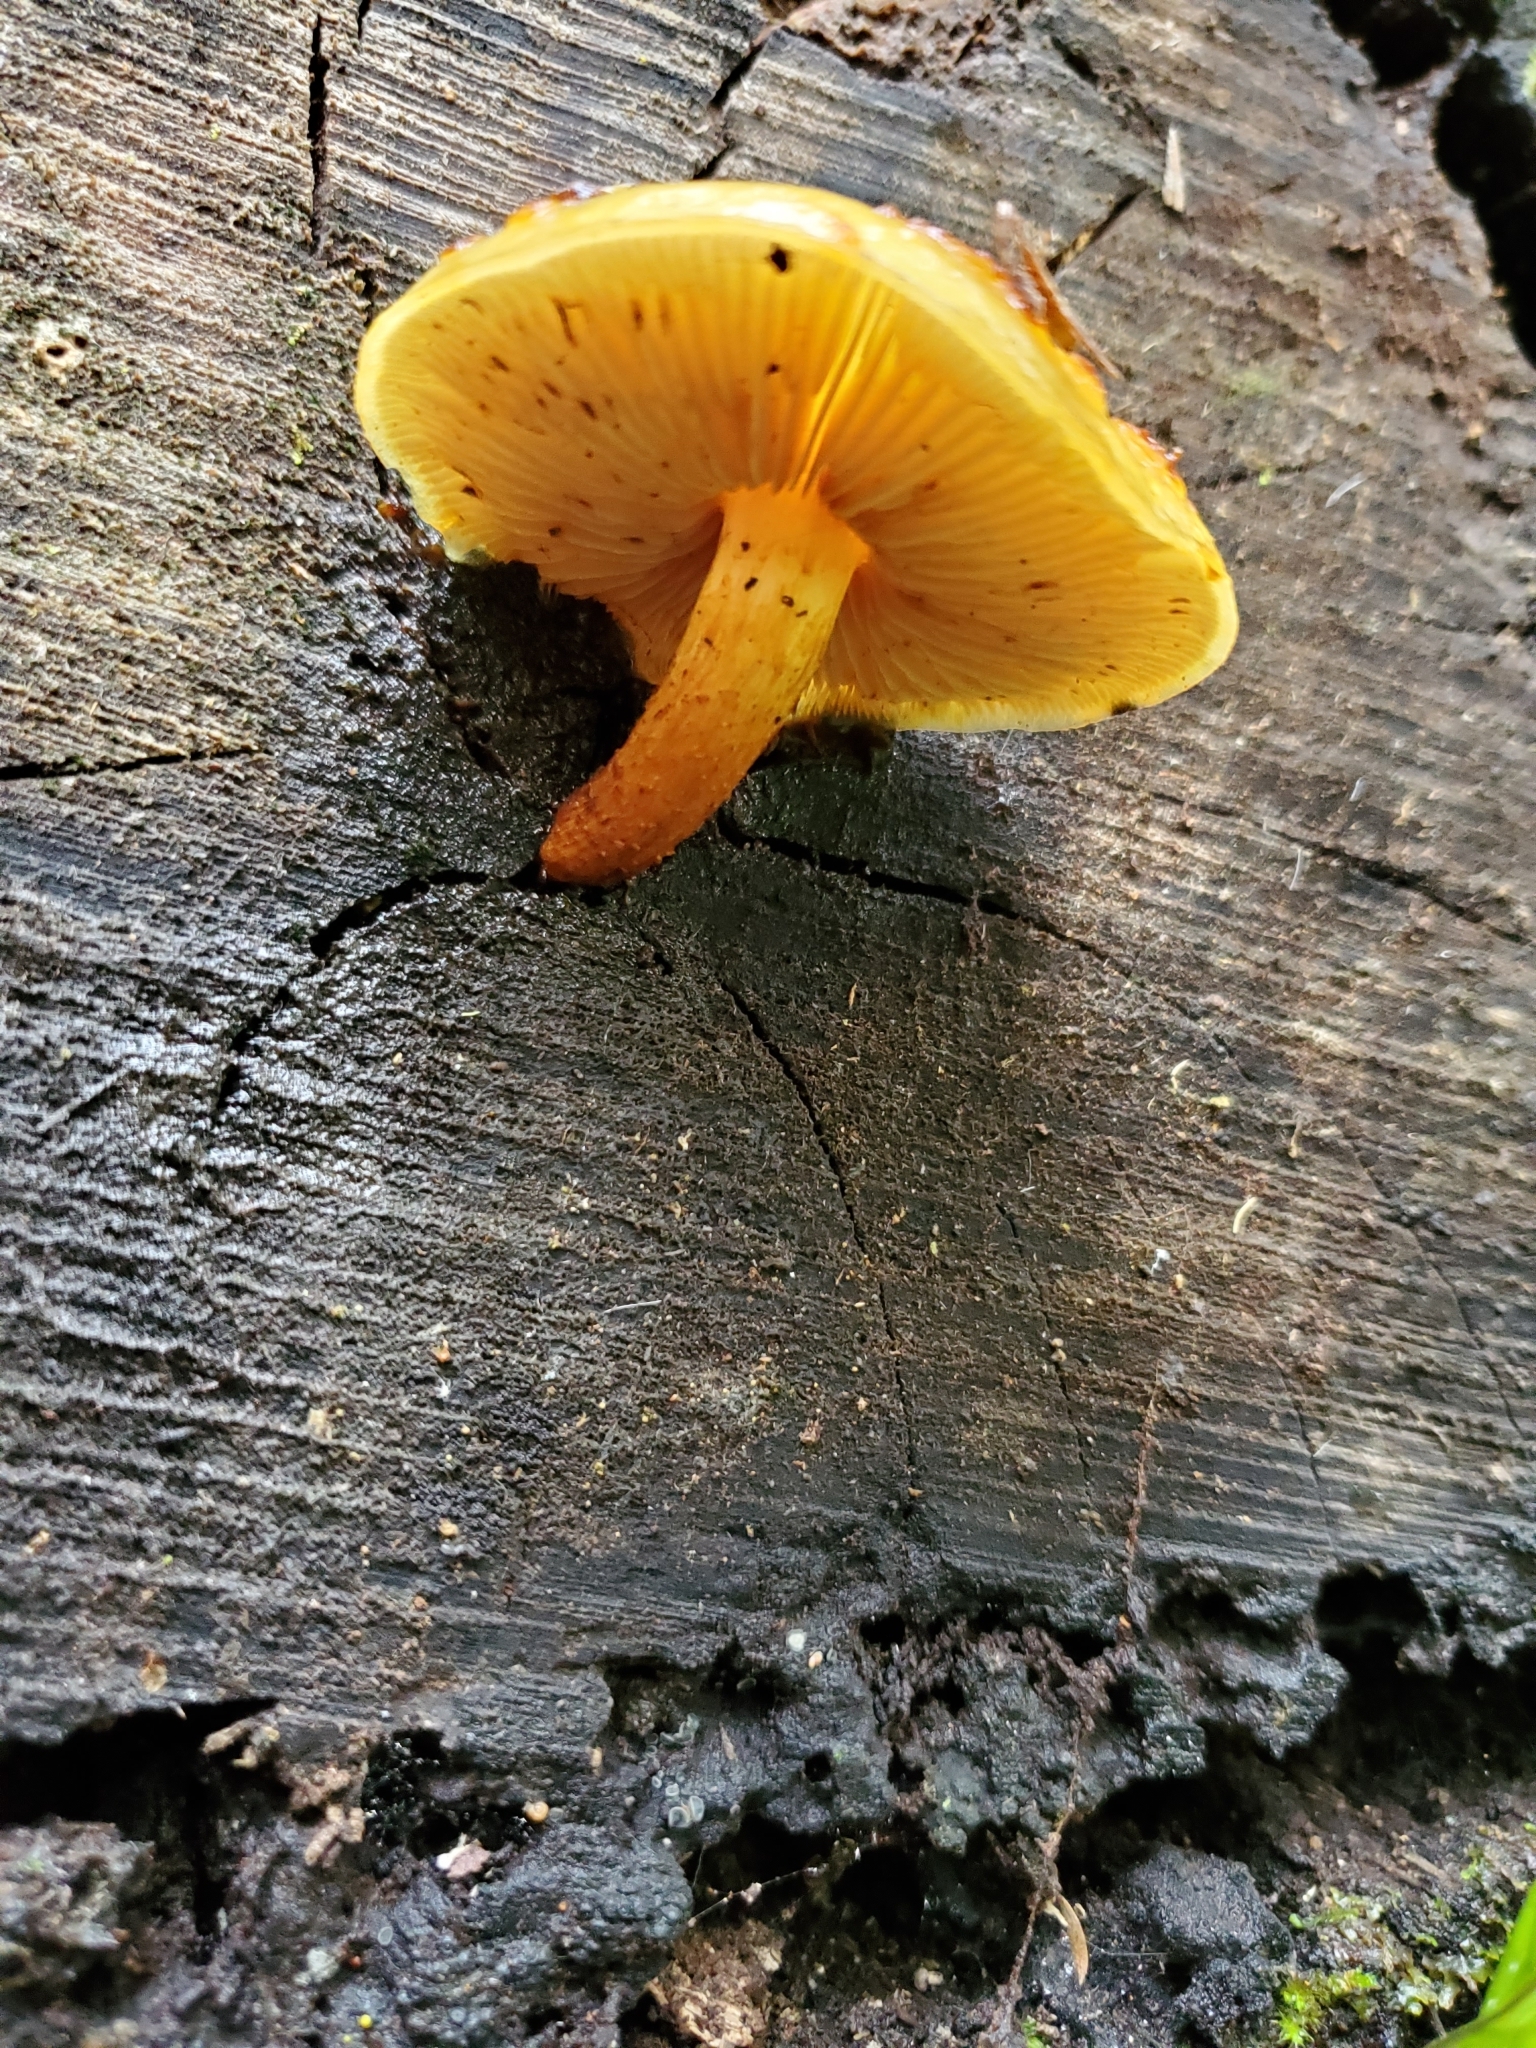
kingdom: Fungi
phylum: Basidiomycota
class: Agaricomycetes
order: Agaricales
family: Strophariaceae
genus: Pholiota
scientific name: Pholiota glutinosa
